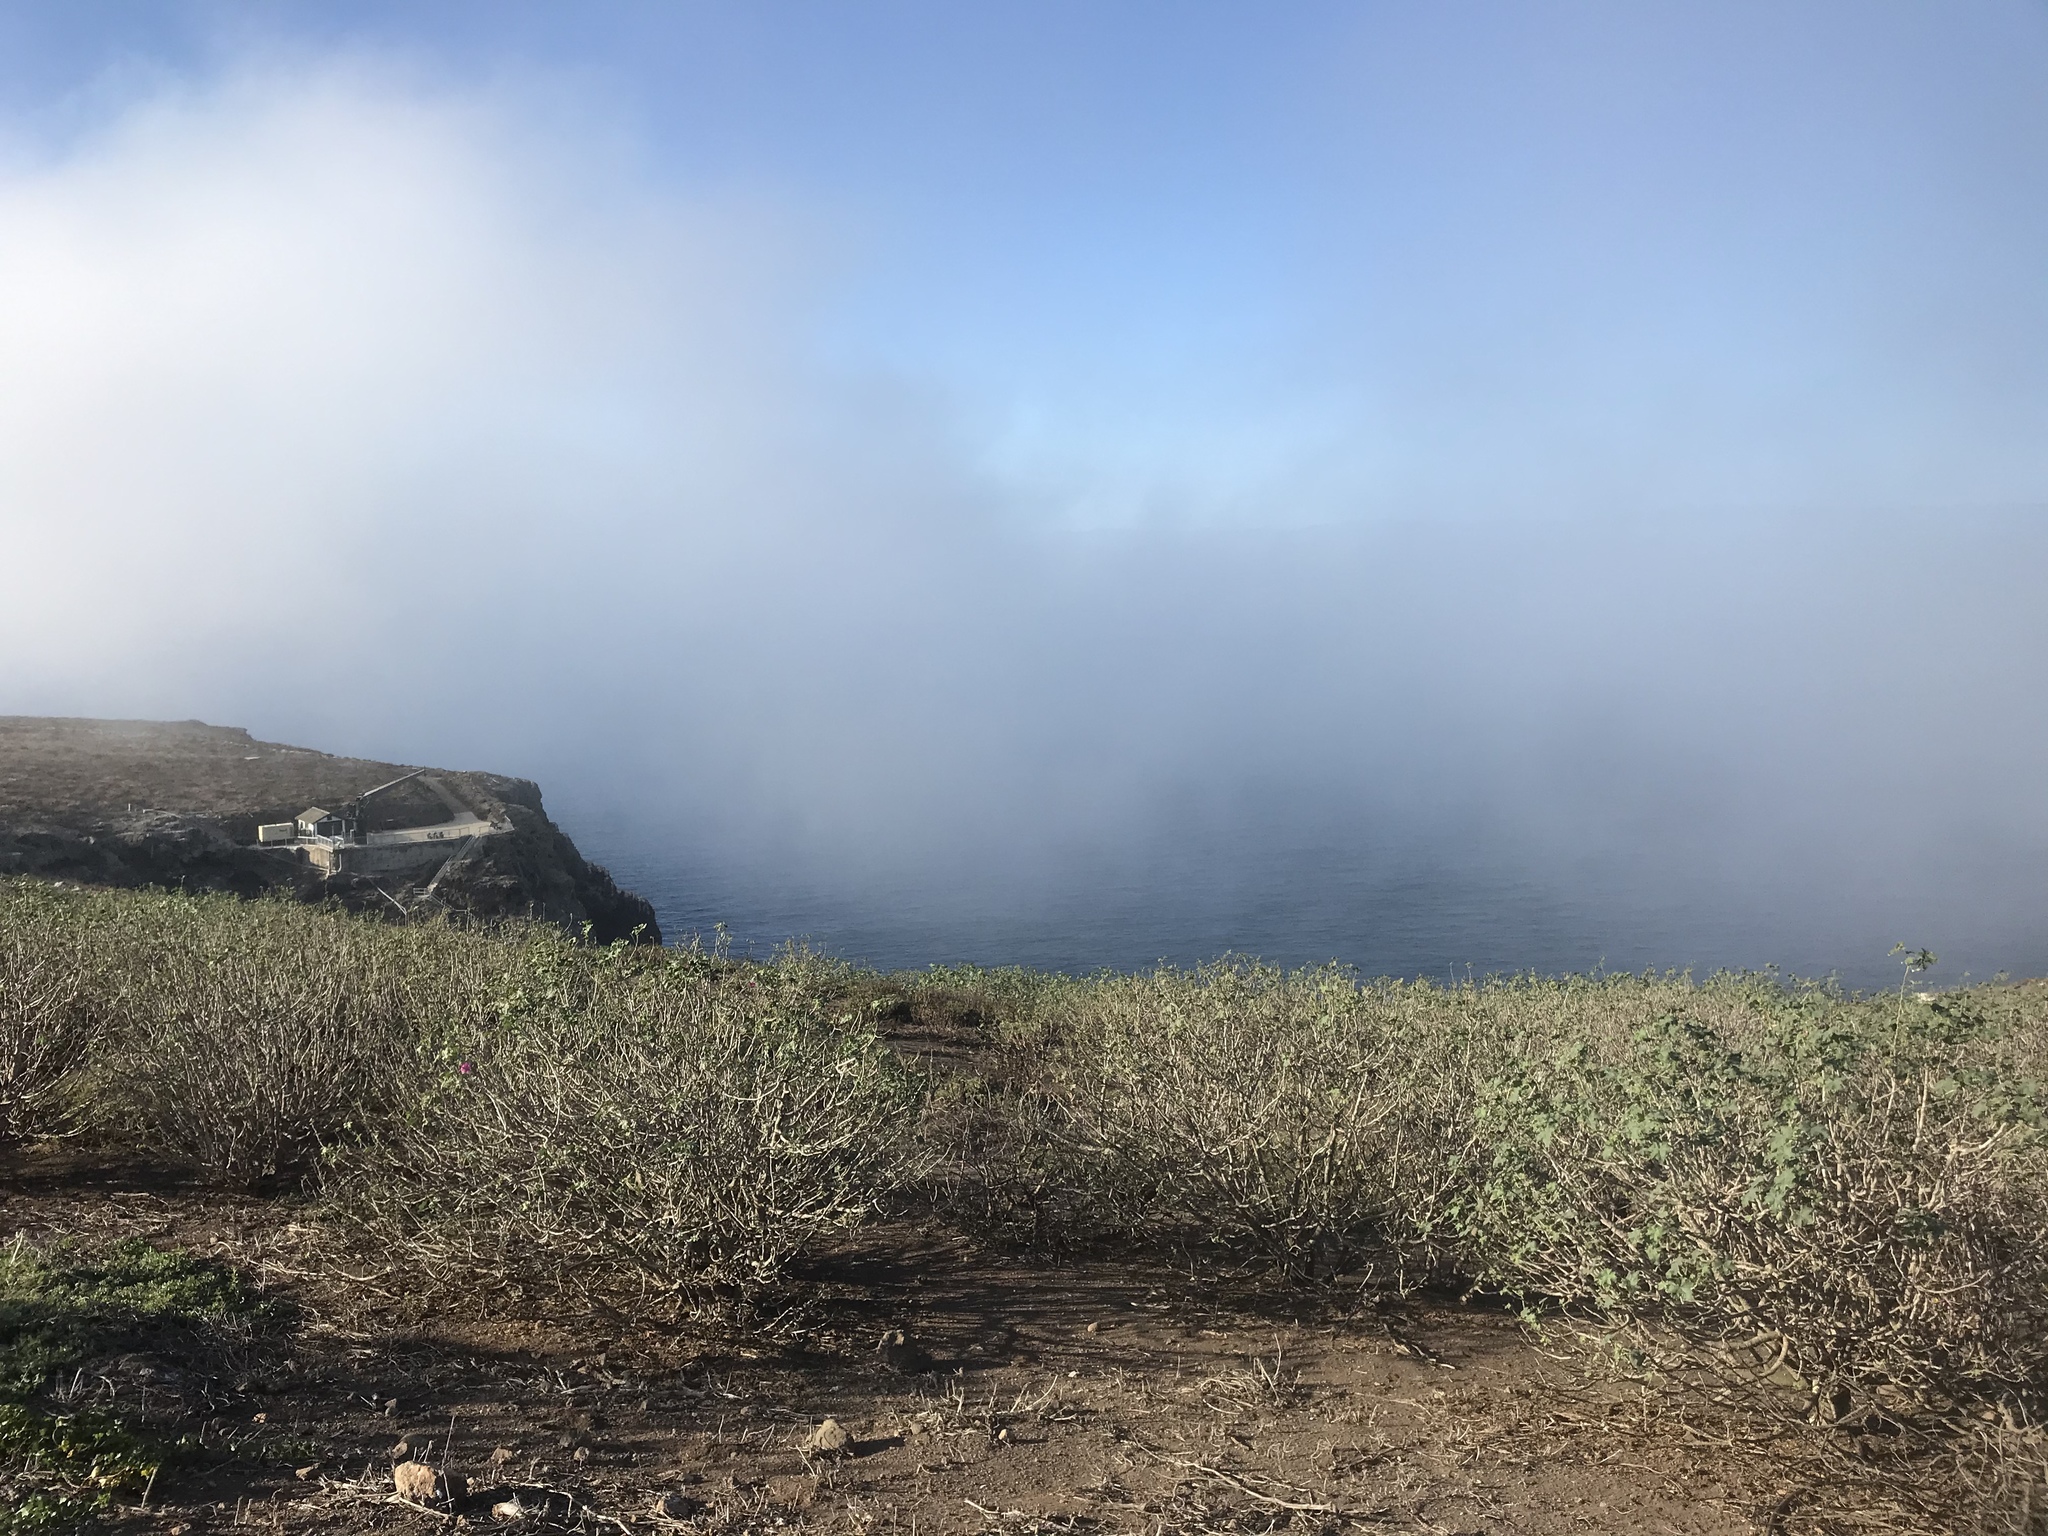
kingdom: Plantae
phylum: Tracheophyta
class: Magnoliopsida
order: Malvales
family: Malvaceae
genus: Malva
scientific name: Malva assurgentiflora
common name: Island mallow
